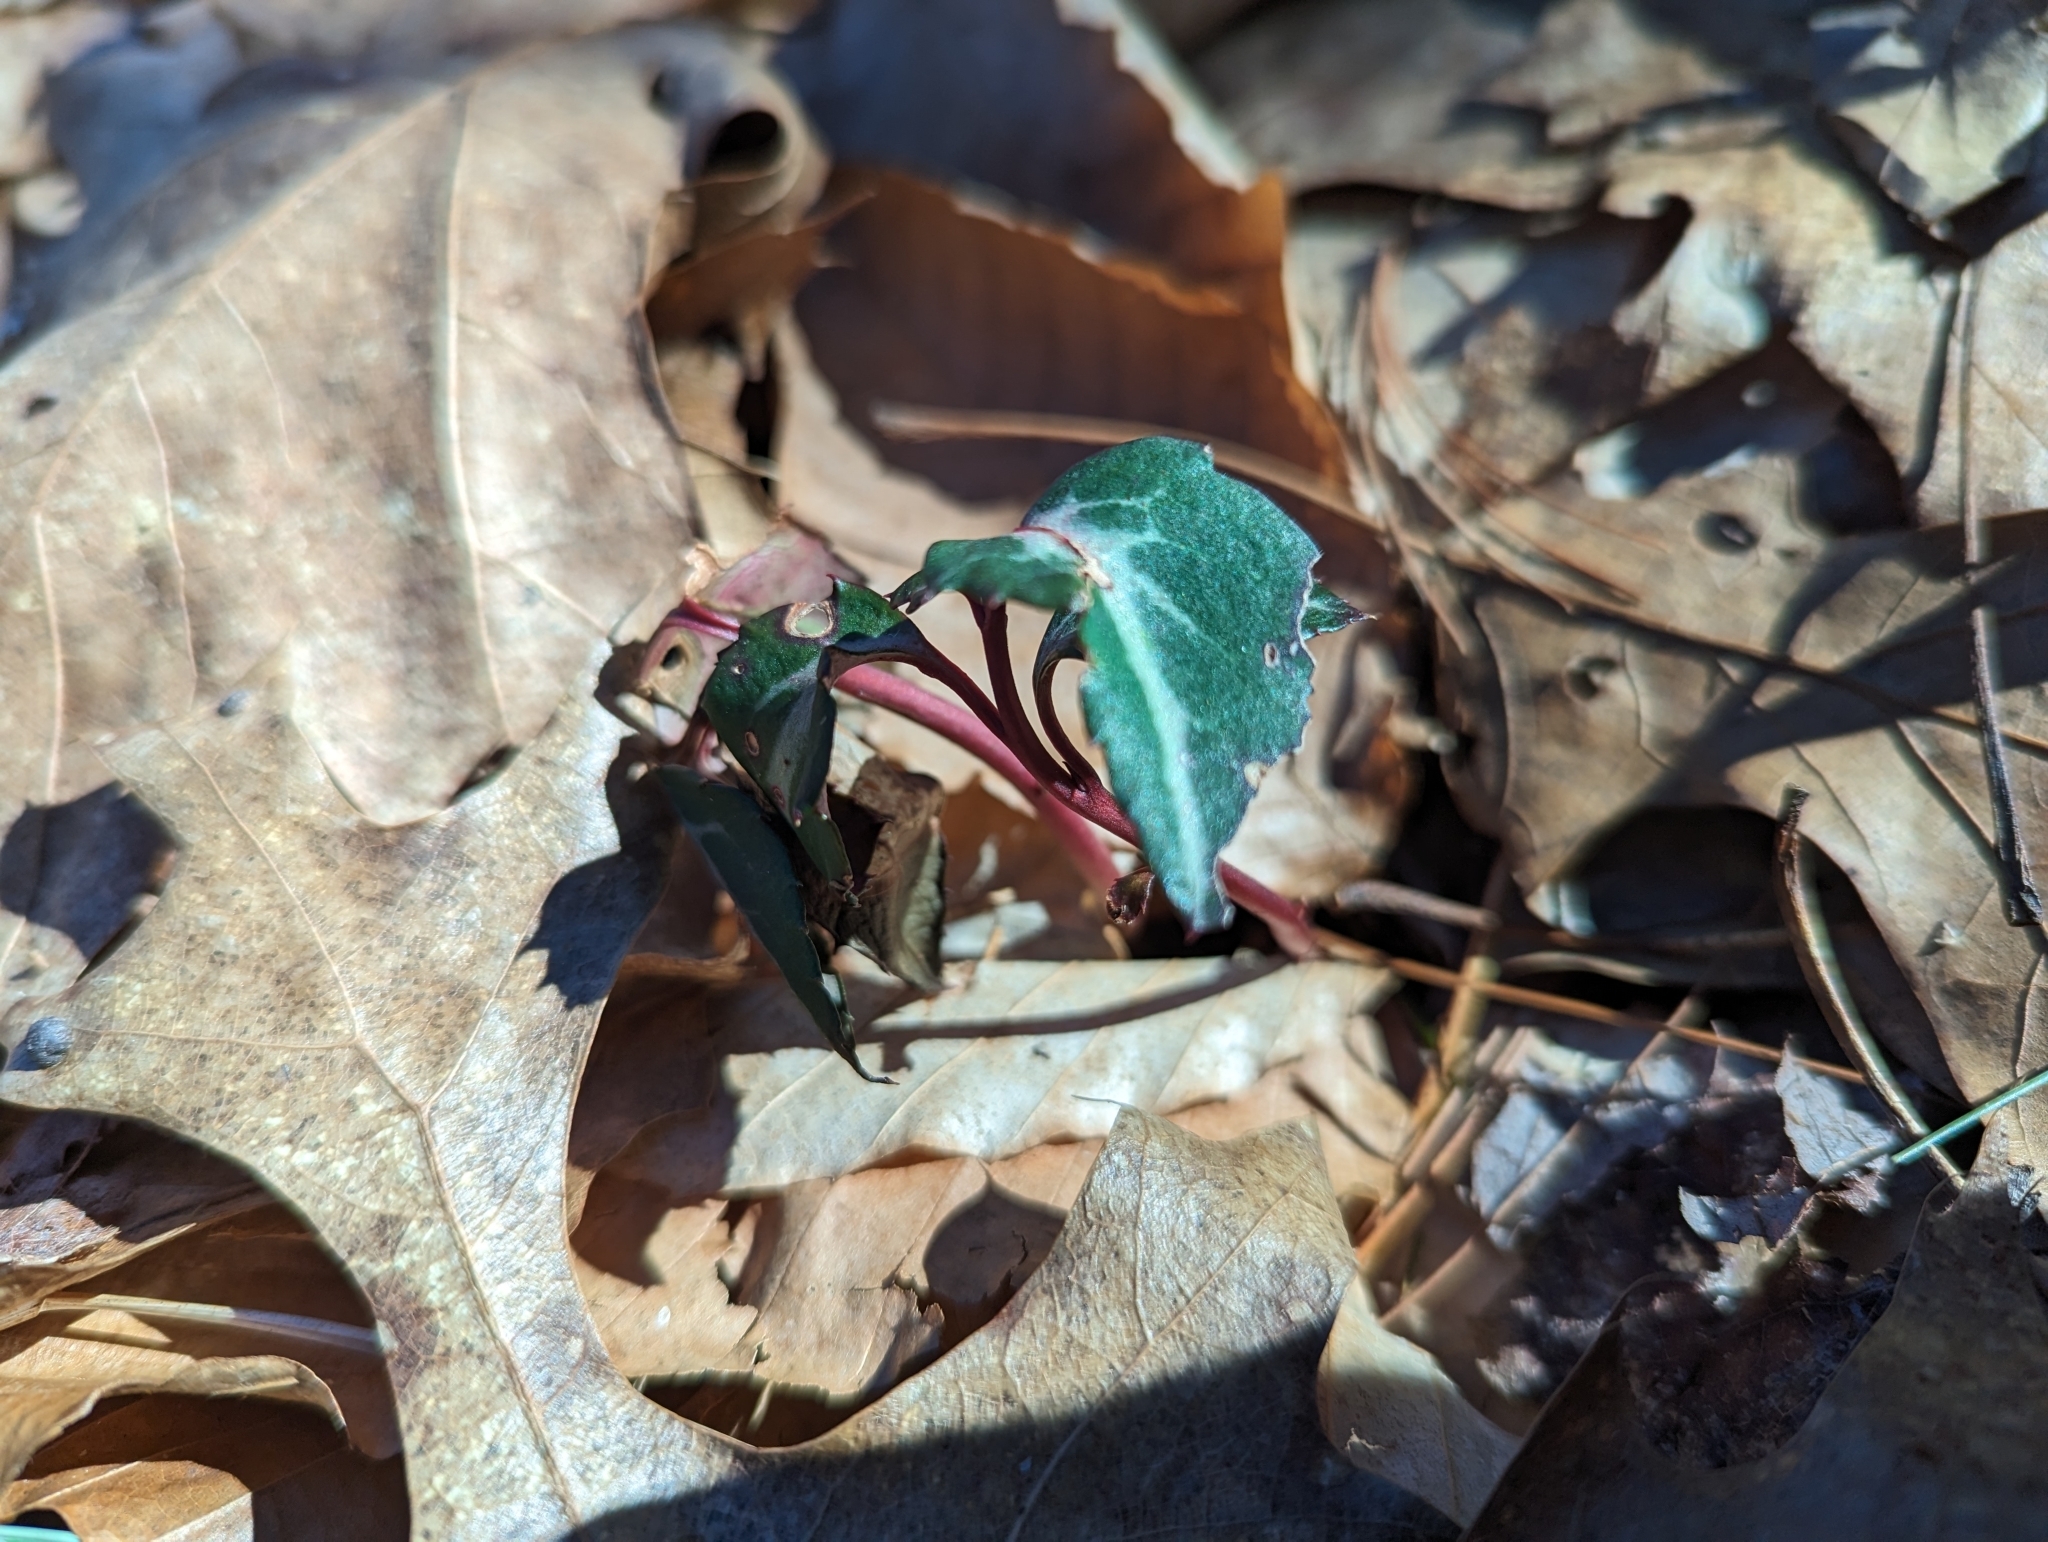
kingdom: Plantae
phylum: Tracheophyta
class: Magnoliopsida
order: Ericales
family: Ericaceae
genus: Chimaphila
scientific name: Chimaphila maculata
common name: Spotted pipsissewa
